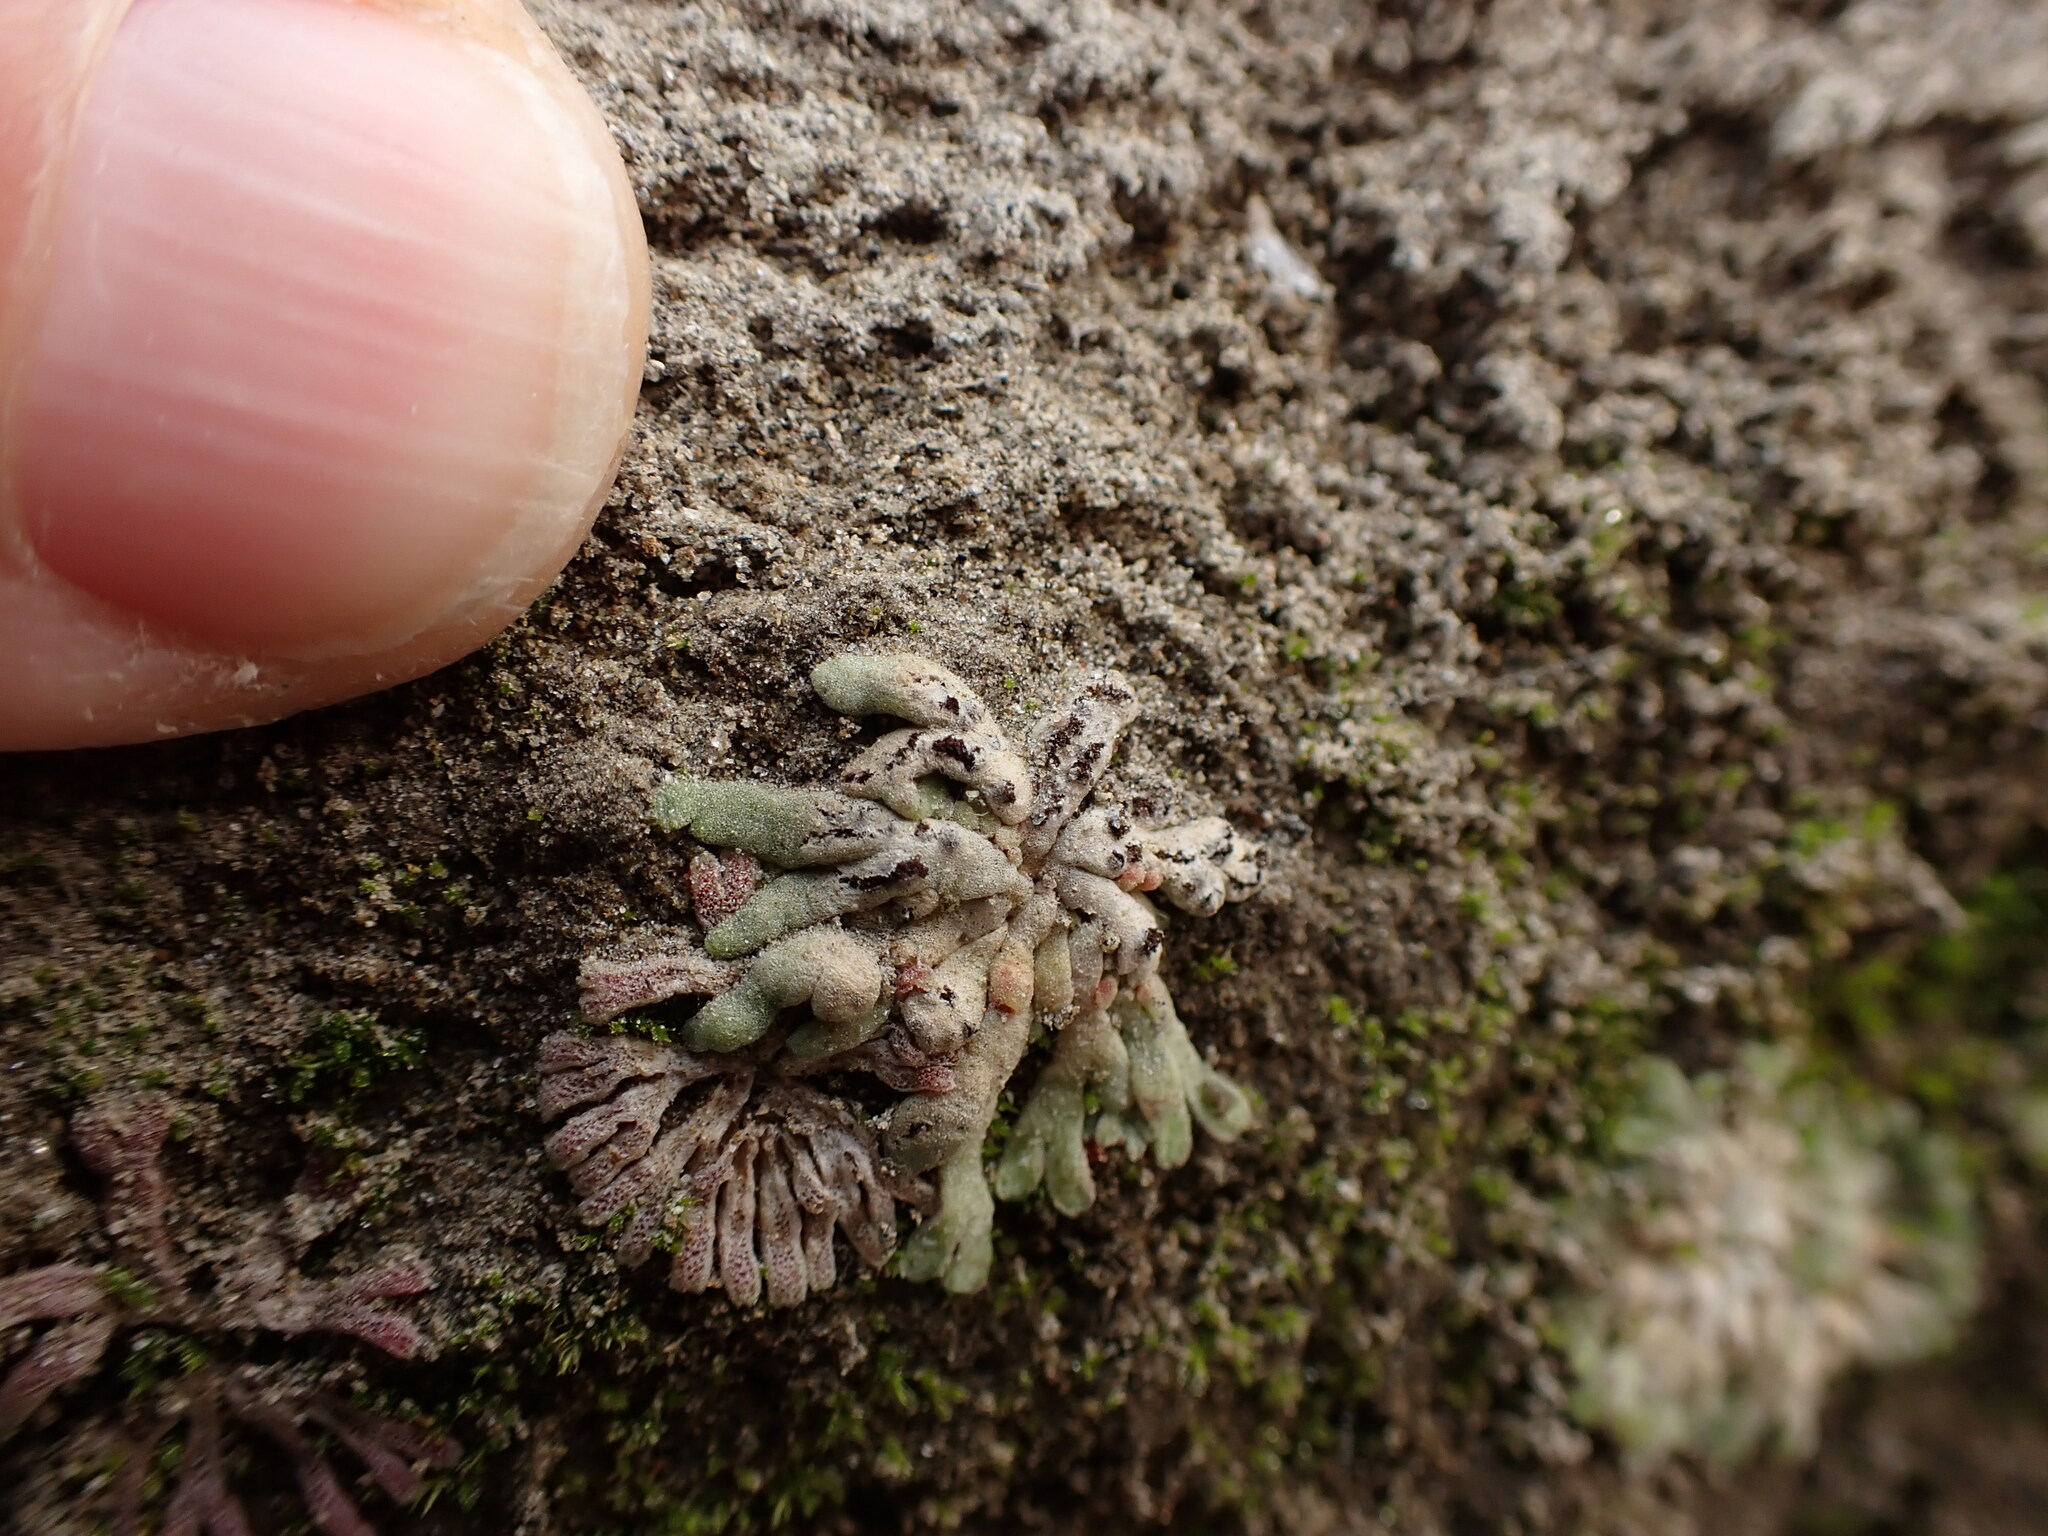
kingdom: Plantae
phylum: Marchantiophyta
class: Marchantiopsida
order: Marchantiales
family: Ricciaceae
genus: Riccia
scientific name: Riccia frostii
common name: Frost s crystalwort
